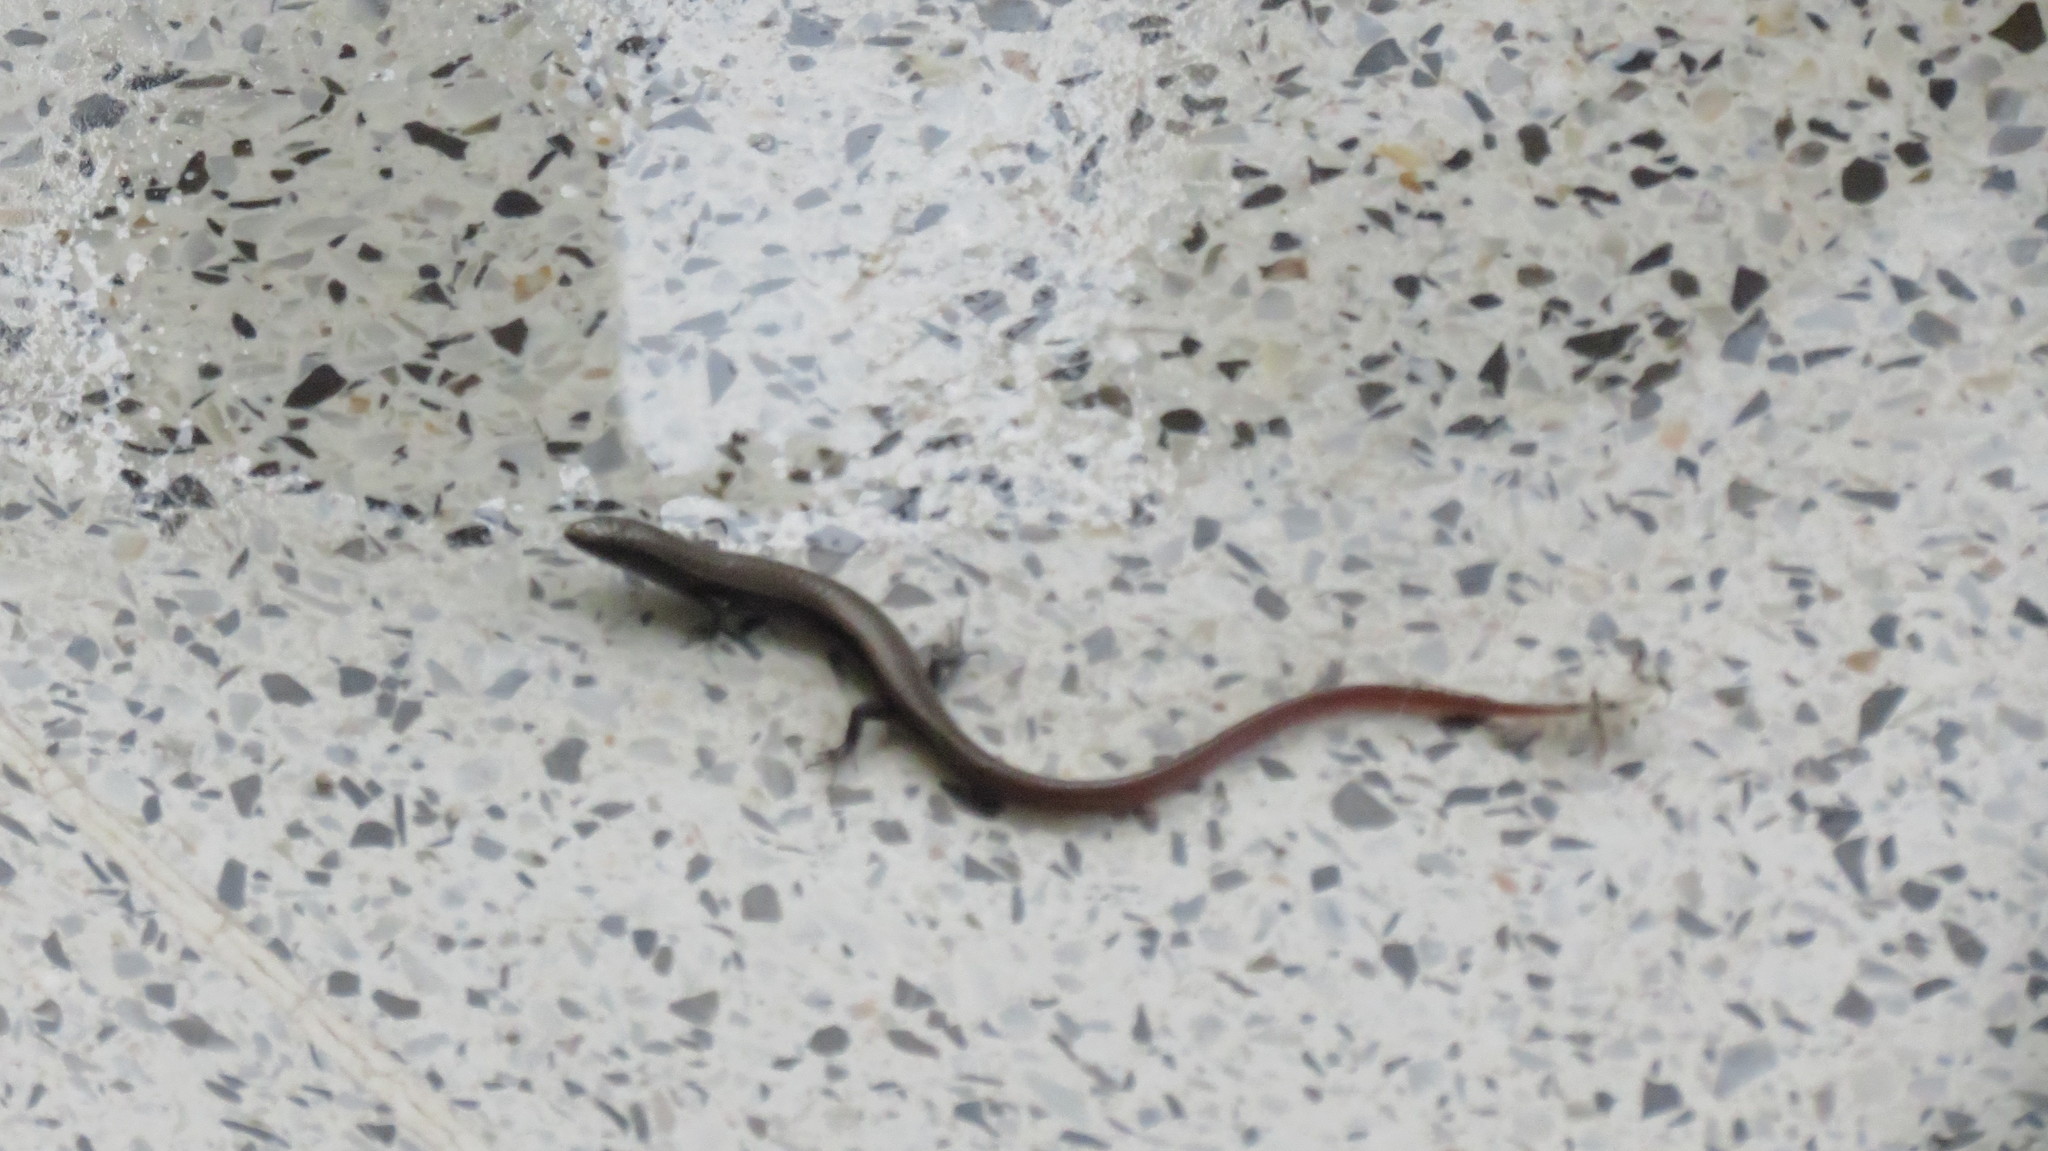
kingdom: Animalia
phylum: Chordata
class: Squamata
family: Gymnophthalmidae
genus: Gymnophthalmus
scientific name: Gymnophthalmus speciosus
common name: Golden spectacled tegu
